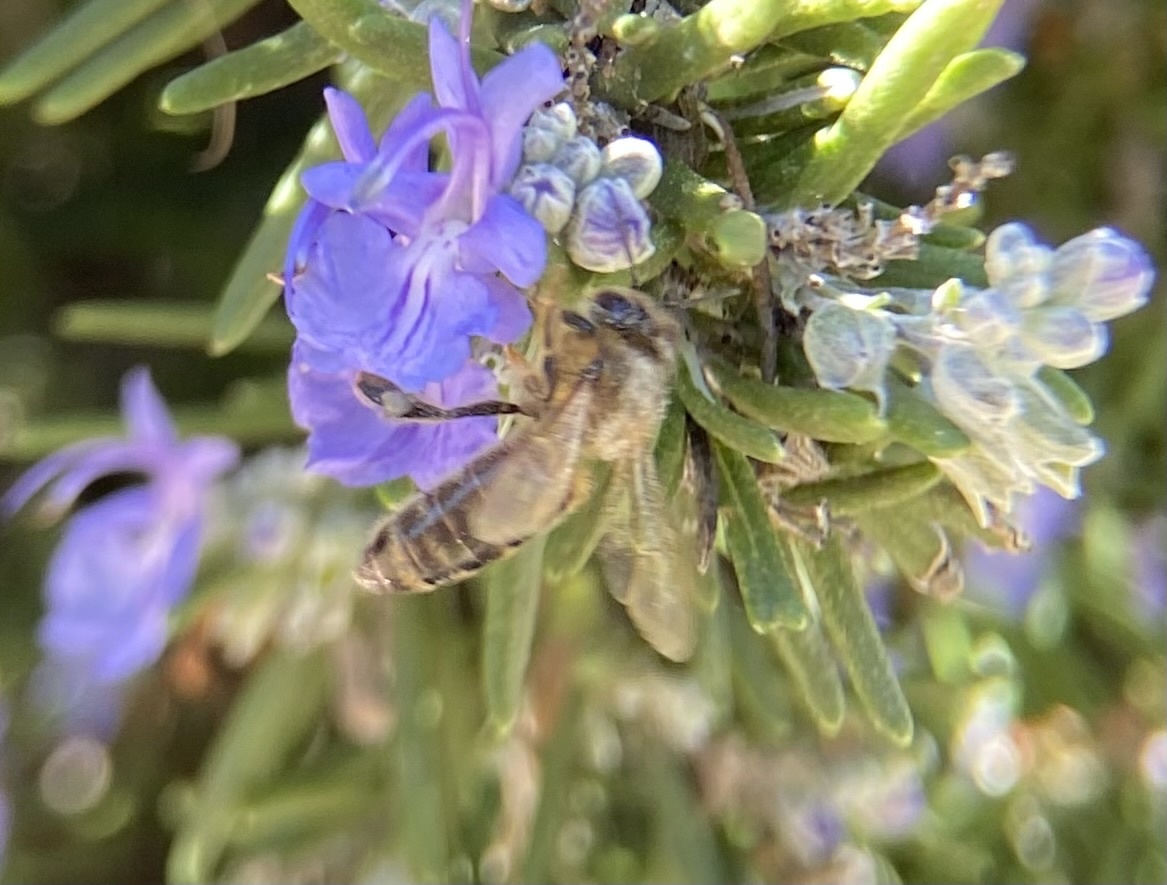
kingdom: Animalia
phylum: Arthropoda
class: Insecta
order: Hymenoptera
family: Apidae
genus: Apis
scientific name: Apis mellifera
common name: Honey bee
